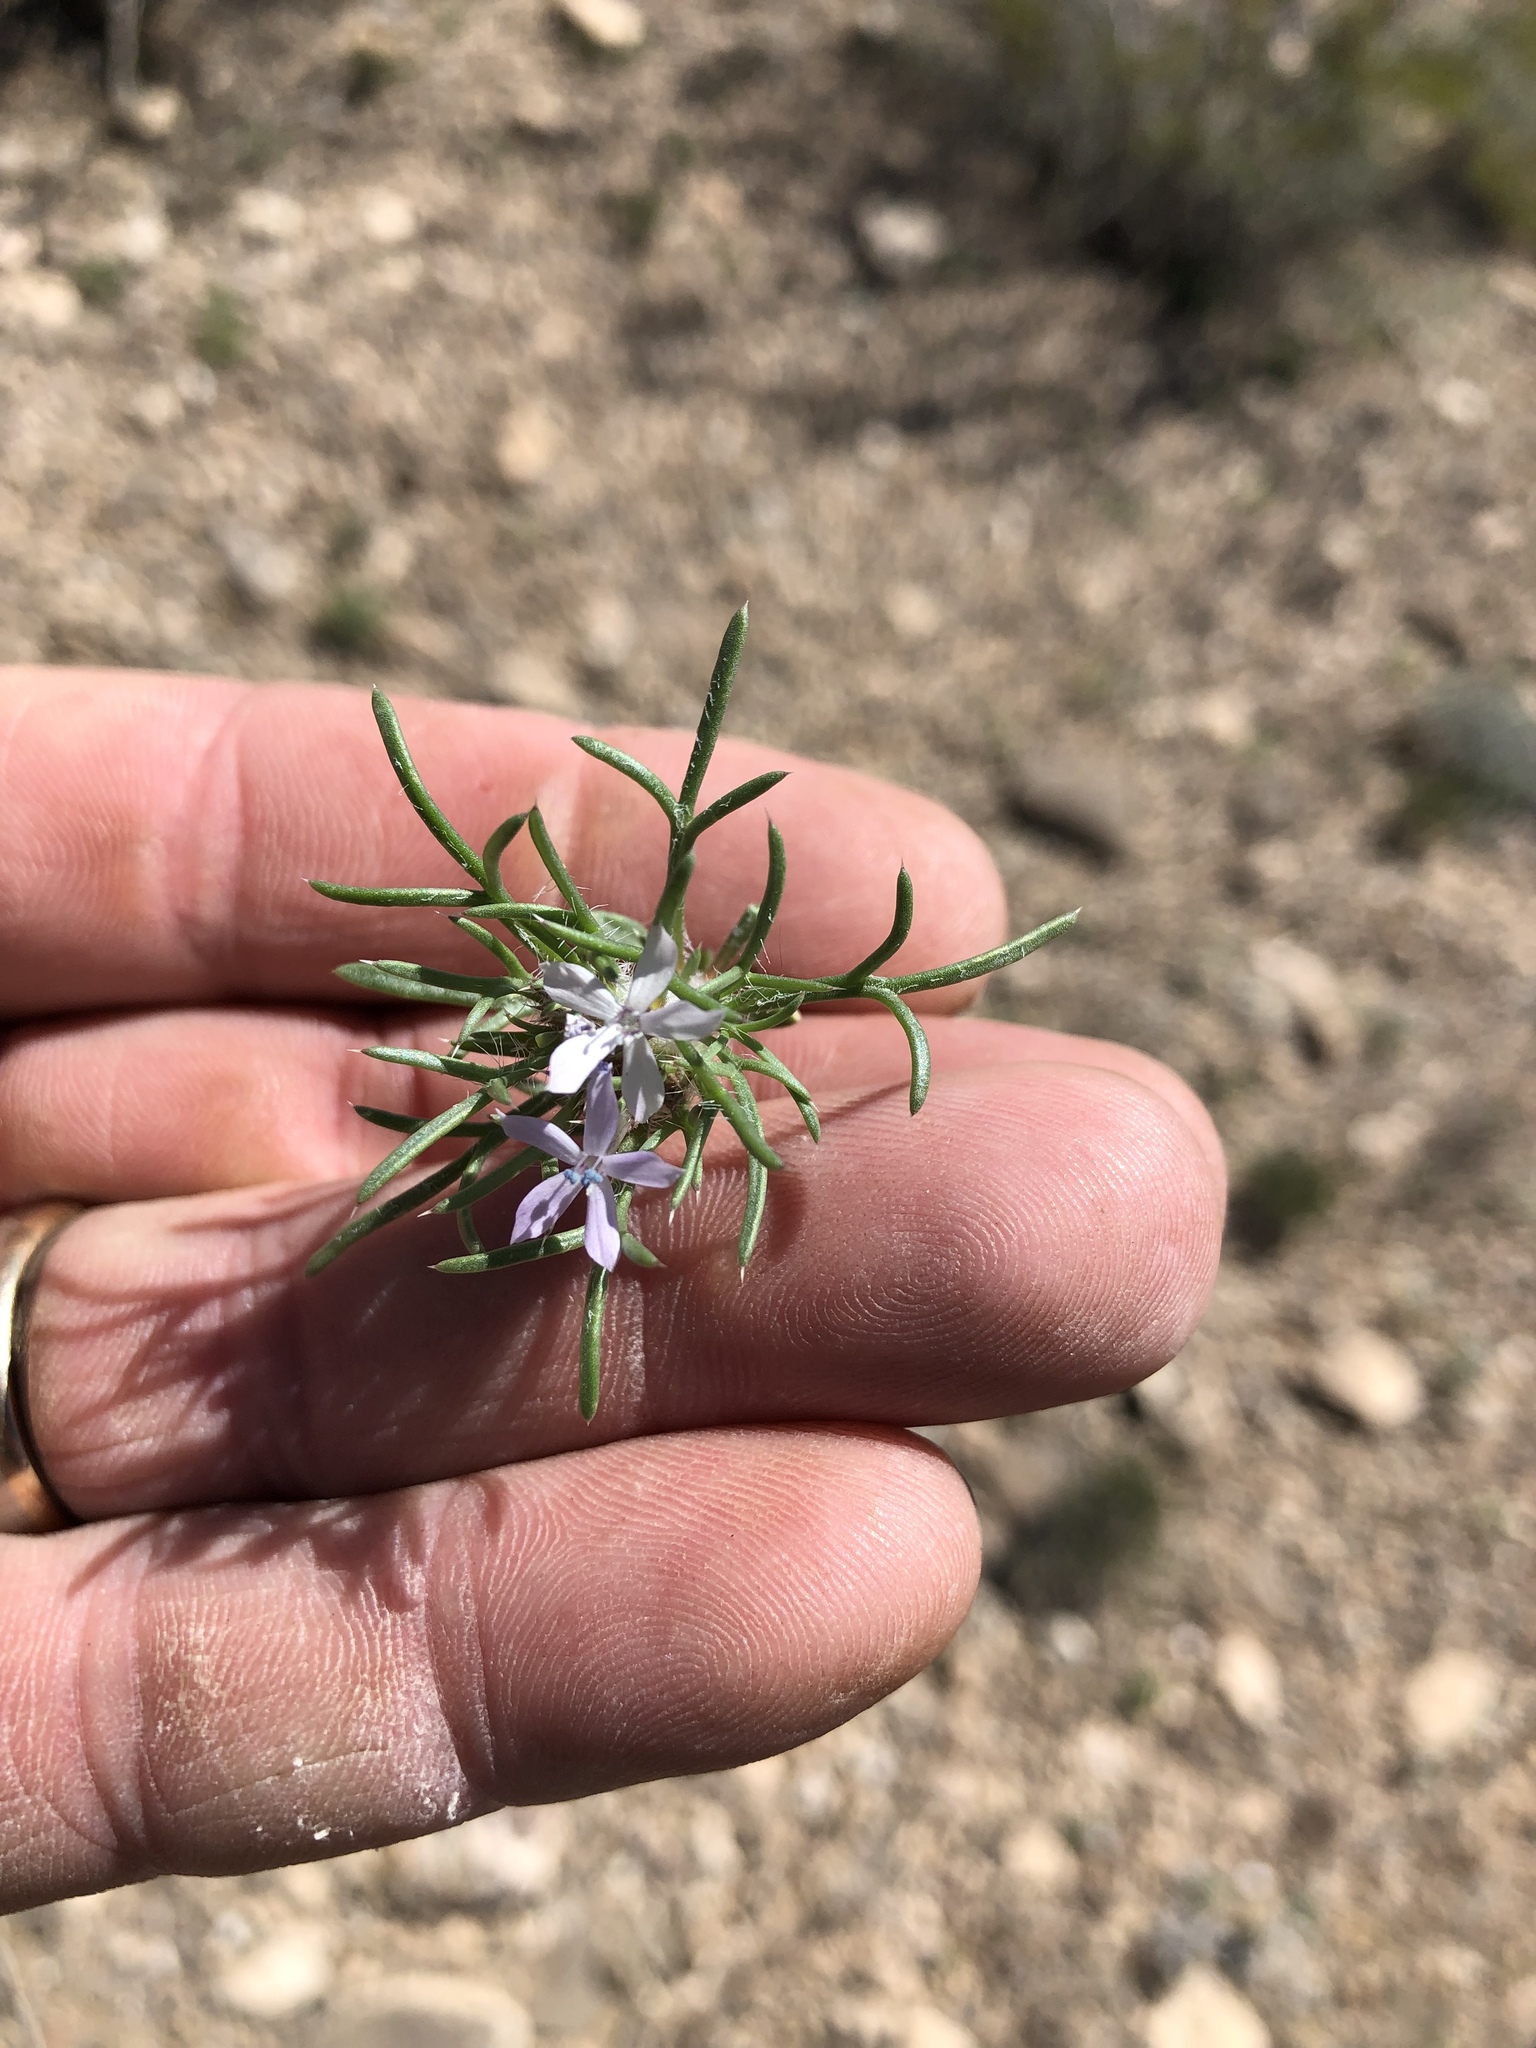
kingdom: Plantae
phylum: Tracheophyta
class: Magnoliopsida
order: Ericales
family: Polemoniaceae
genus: Ipomopsis
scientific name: Ipomopsis pumila
